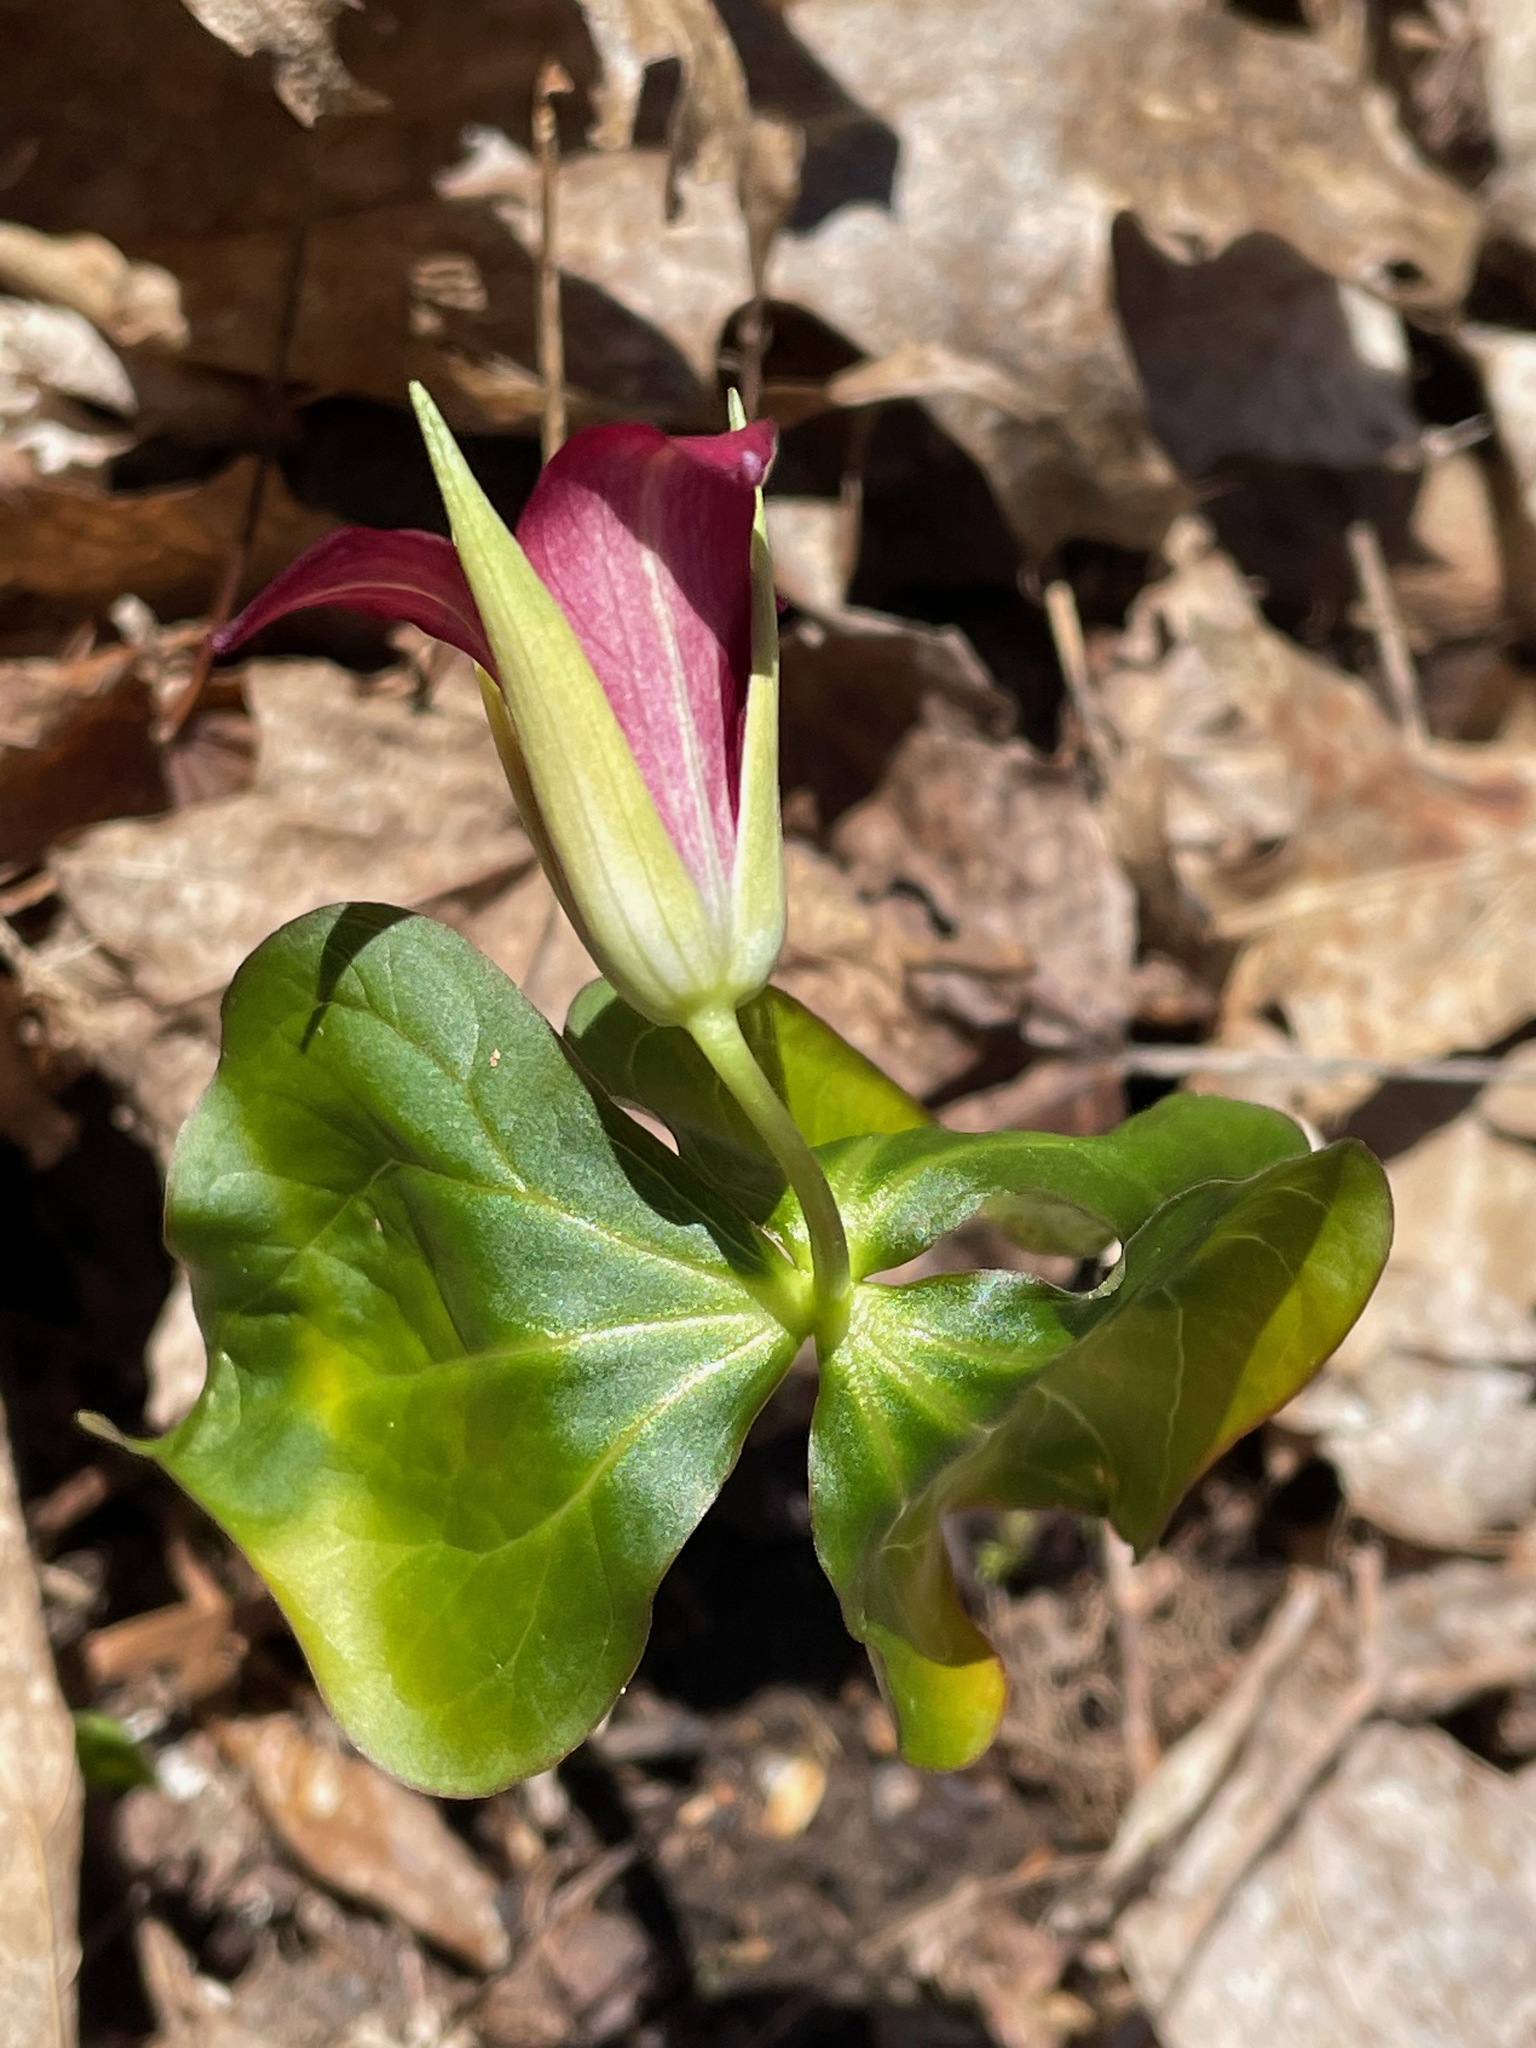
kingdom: Plantae
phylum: Tracheophyta
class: Liliopsida
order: Liliales
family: Melanthiaceae
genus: Trillium
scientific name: Trillium erectum
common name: Purple trillium
